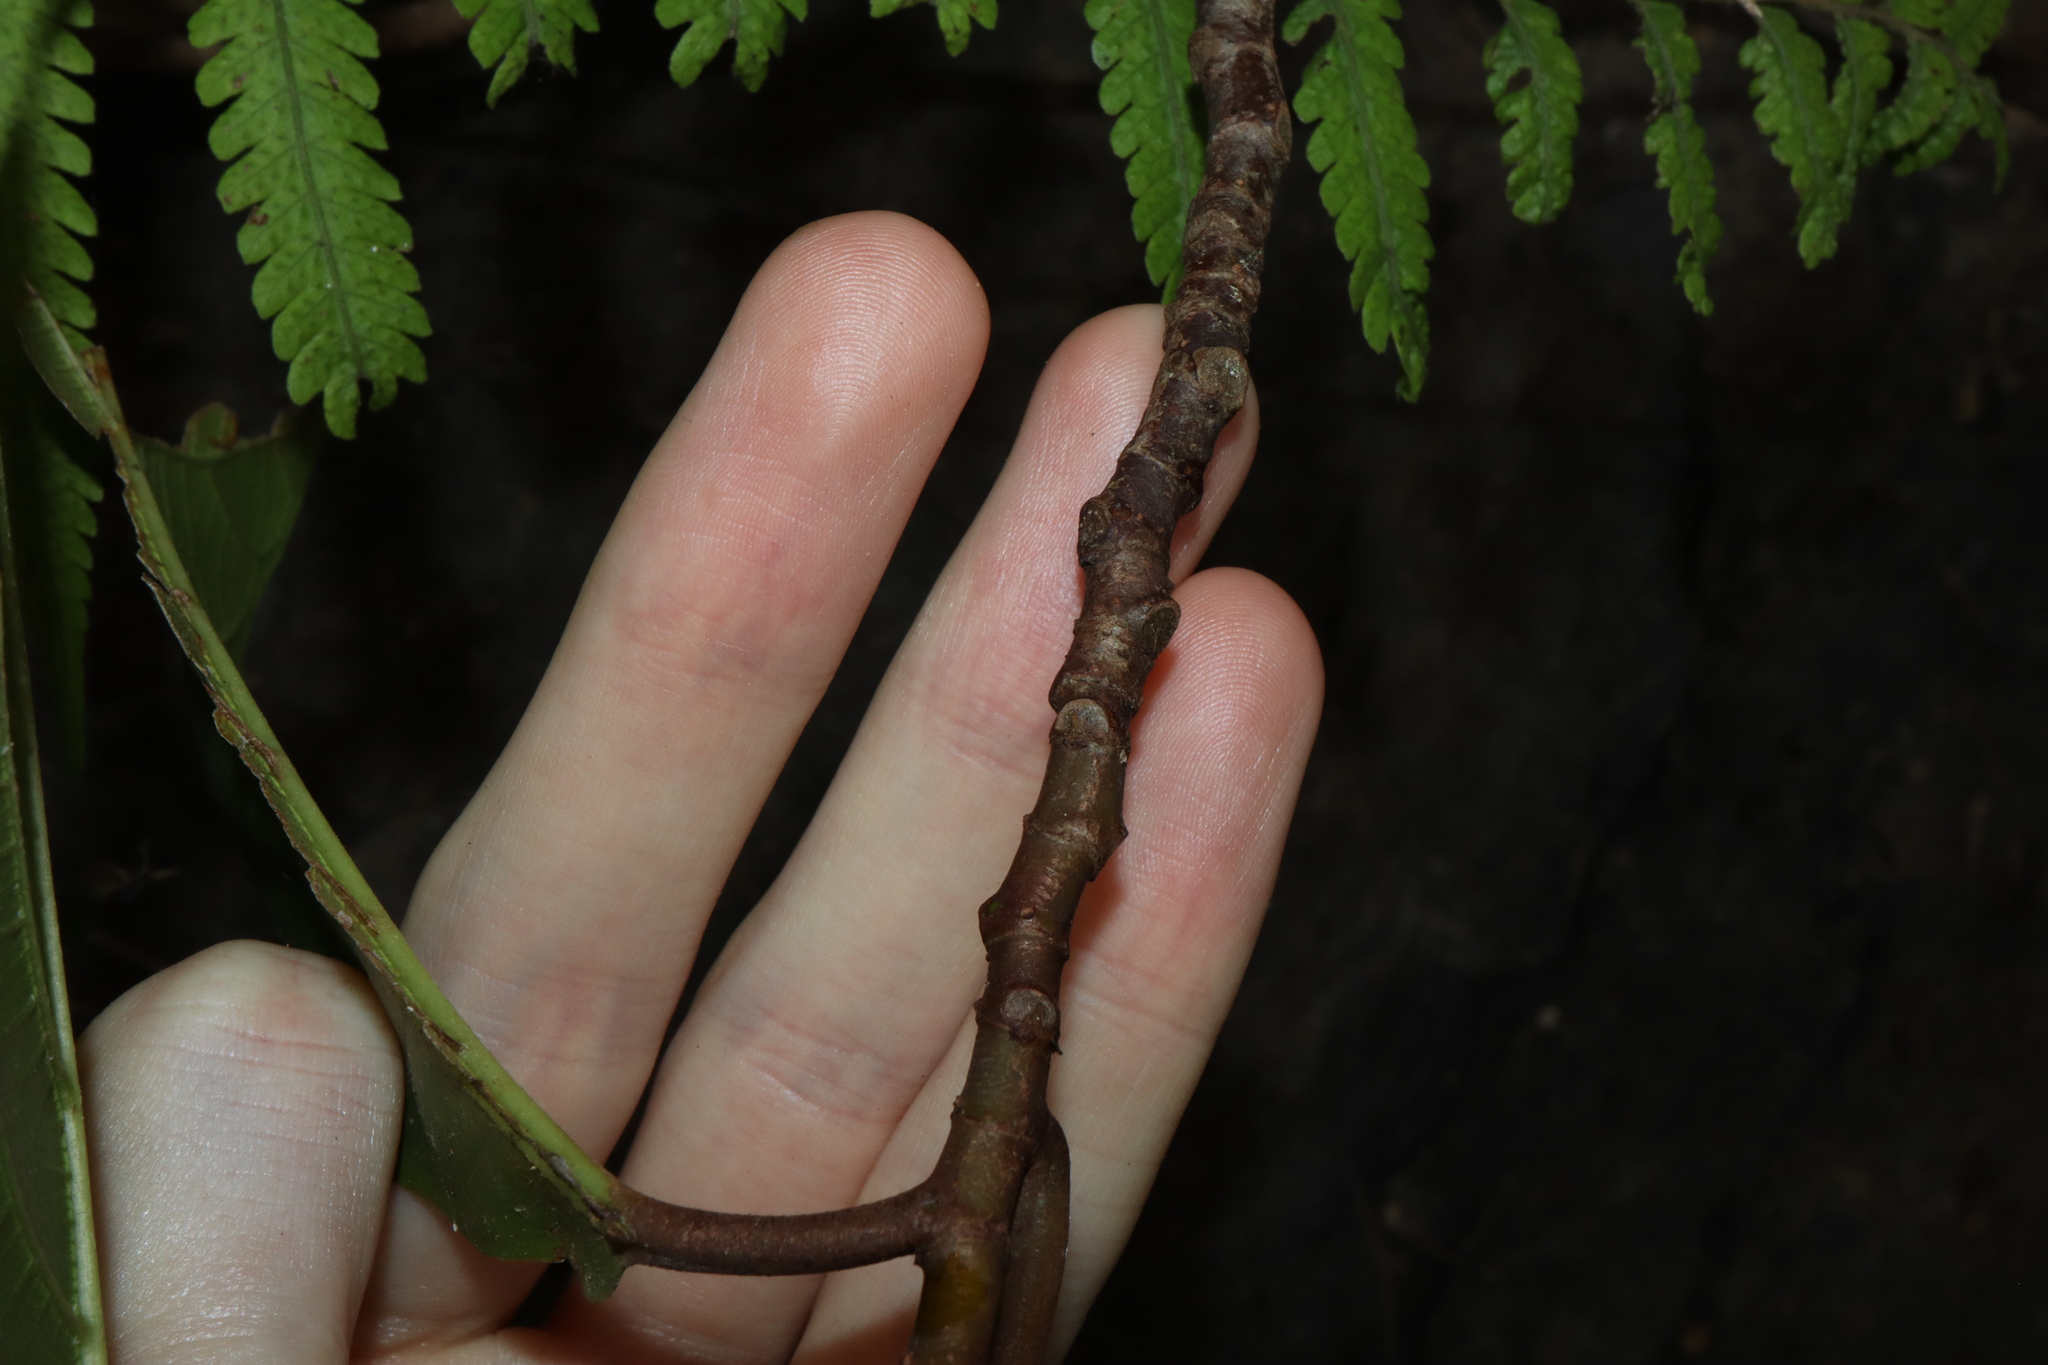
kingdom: Plantae
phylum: Tracheophyta
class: Magnoliopsida
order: Rosales
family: Moraceae
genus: Ficus
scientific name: Ficus congesta
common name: Cluster fig
